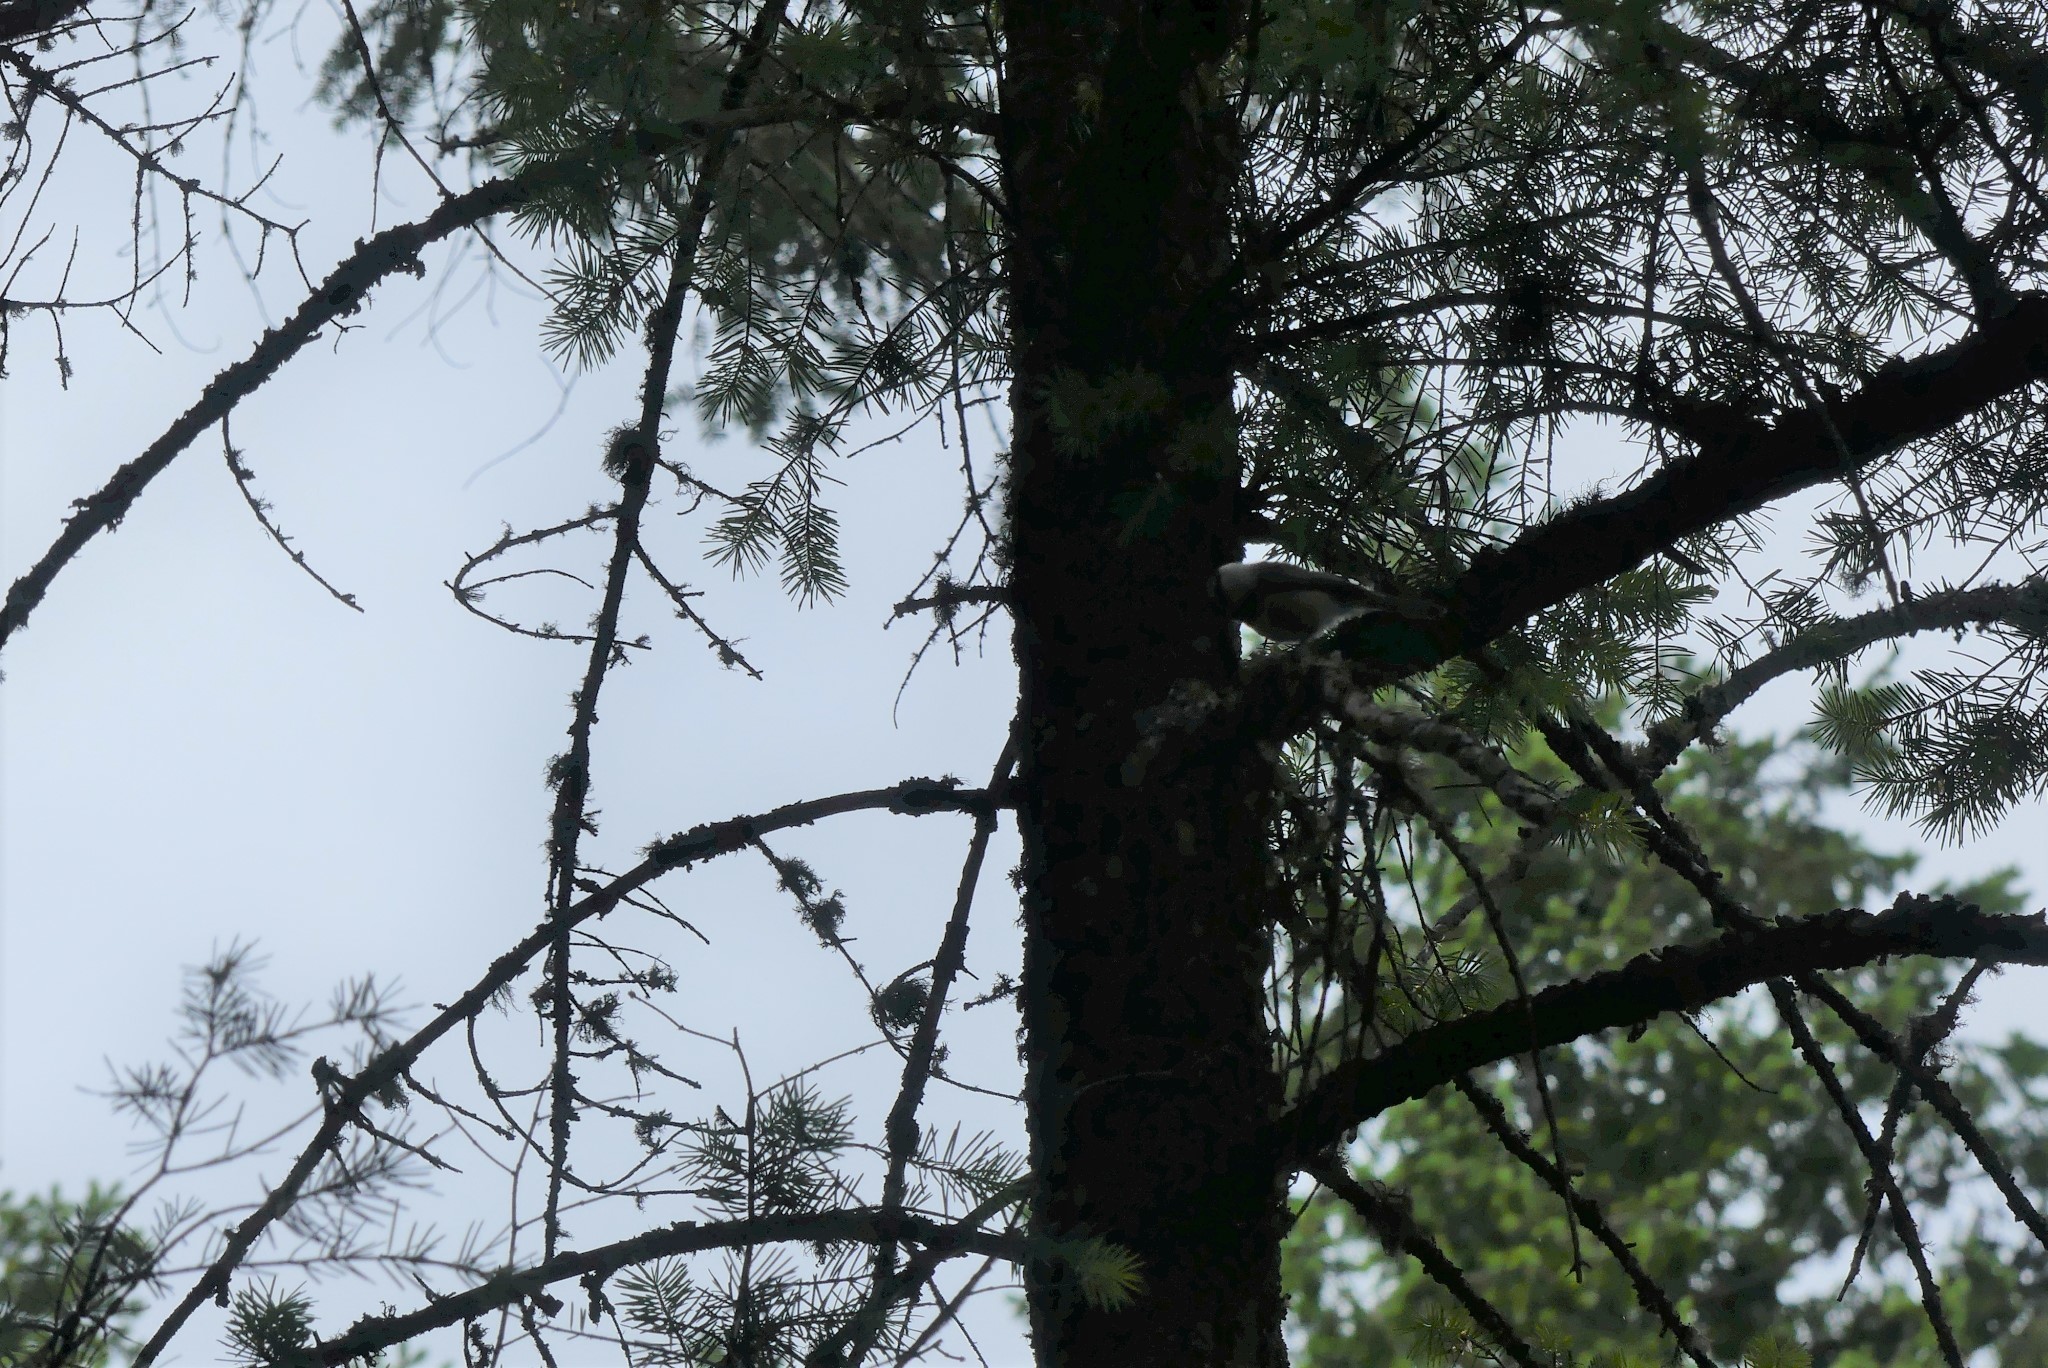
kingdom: Animalia
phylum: Chordata
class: Aves
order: Passeriformes
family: Paridae
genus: Poecile
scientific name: Poecile gambeli
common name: Mountain chickadee
